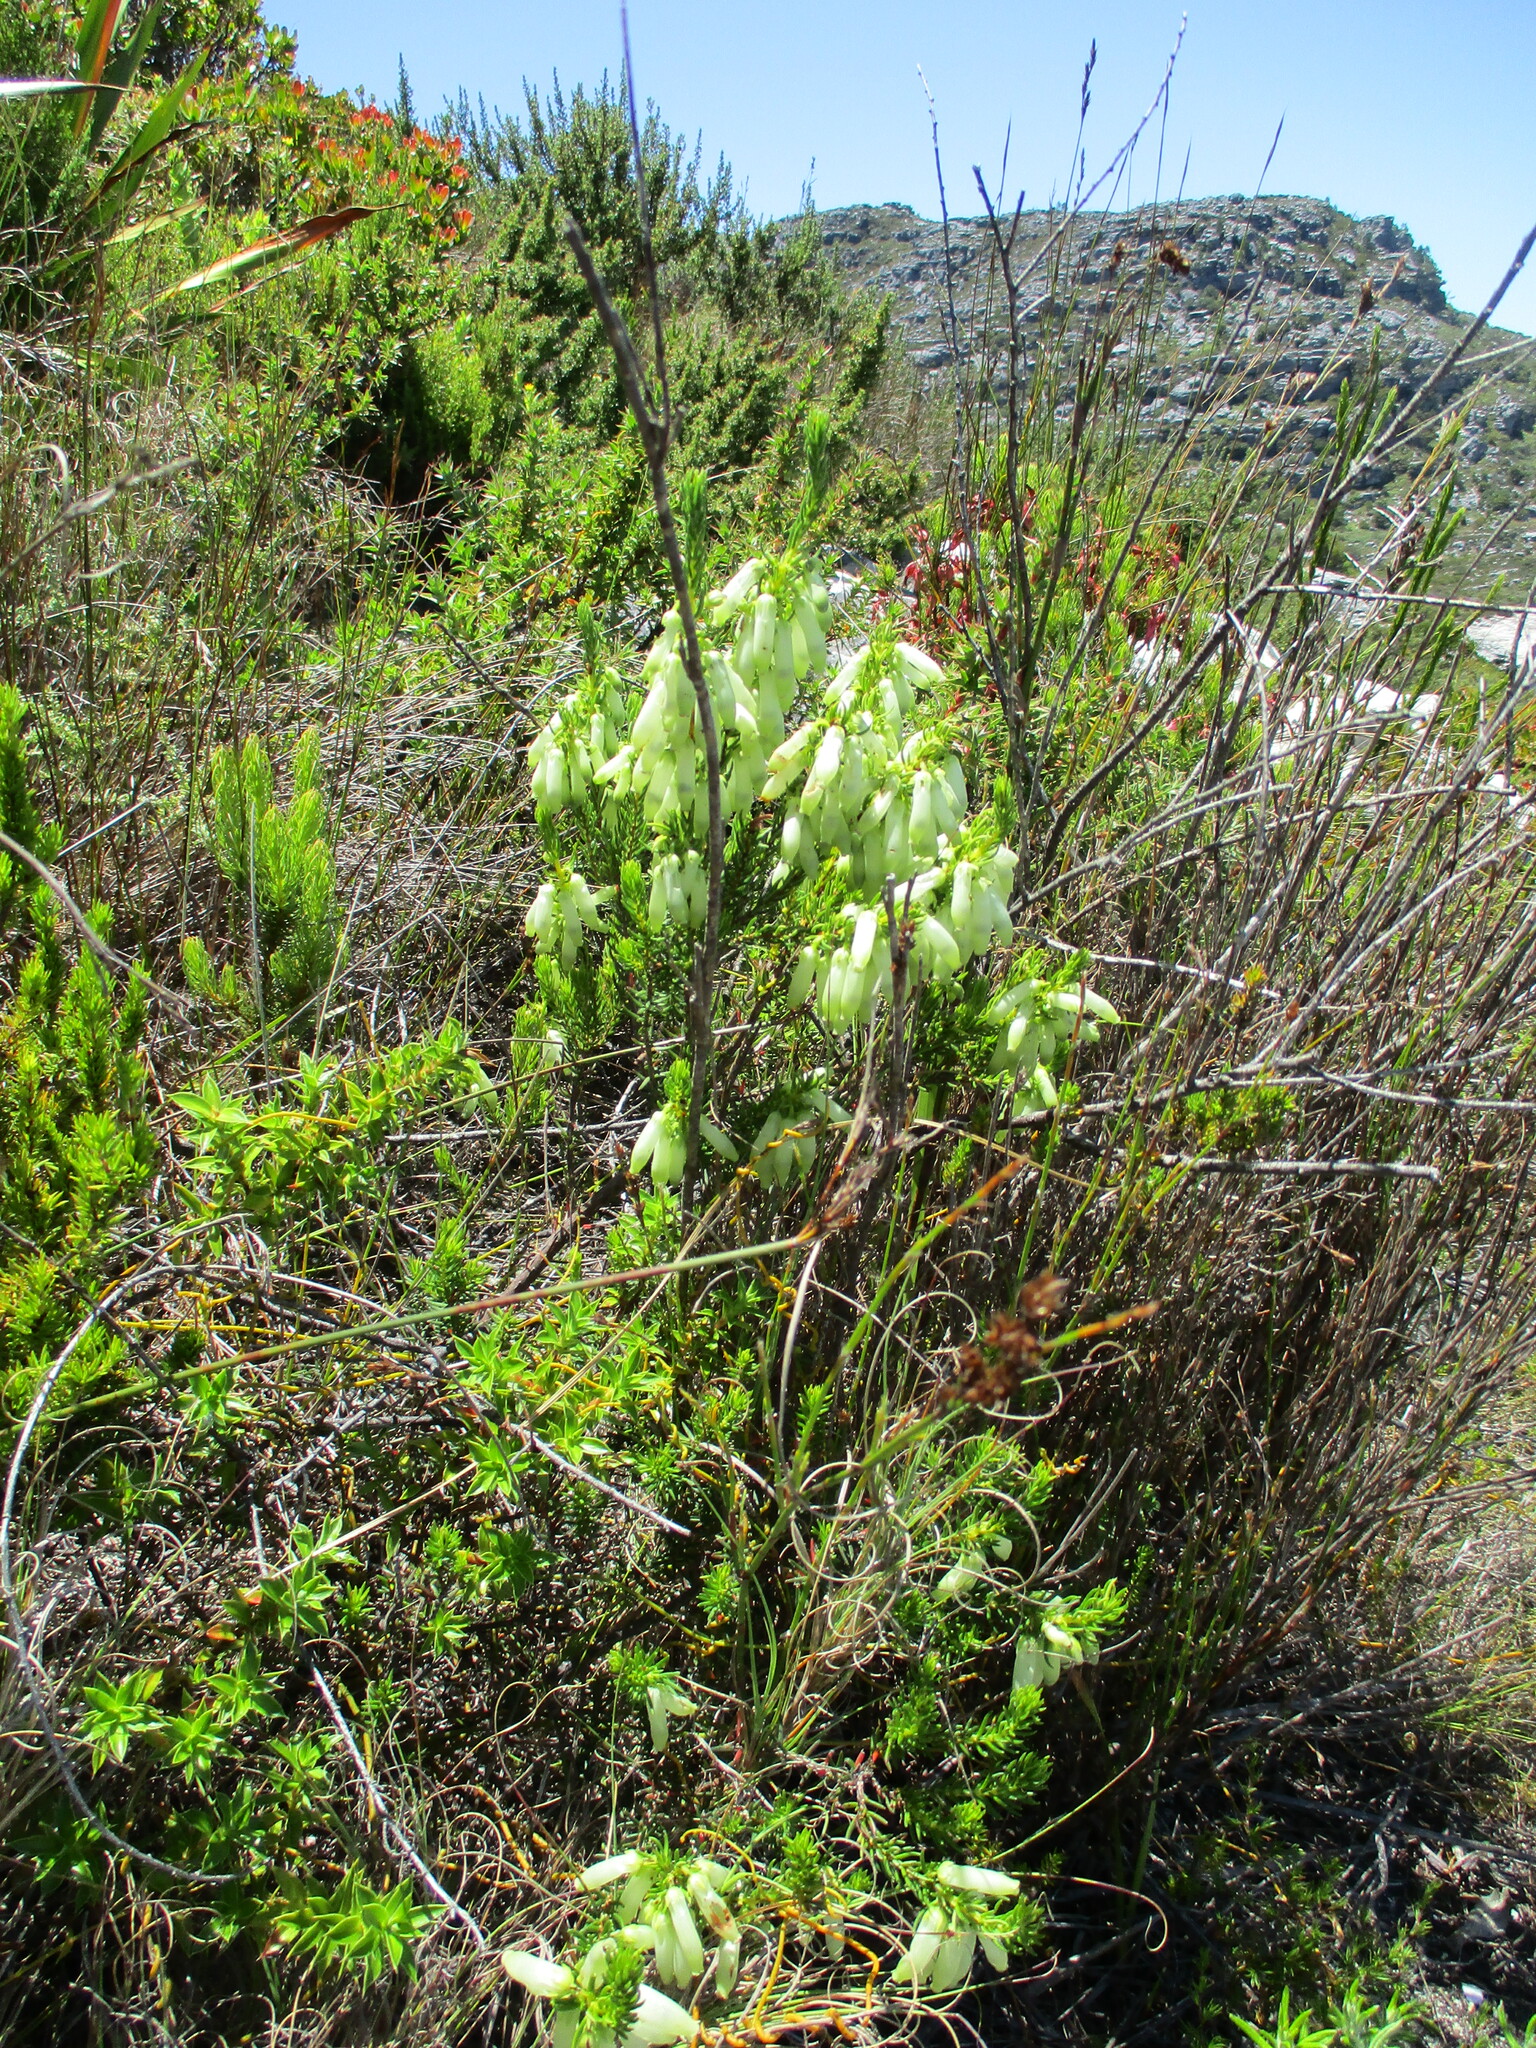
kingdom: Plantae
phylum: Tracheophyta
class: Magnoliopsida
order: Ericales
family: Ericaceae
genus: Erica
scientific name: Erica mammosa
